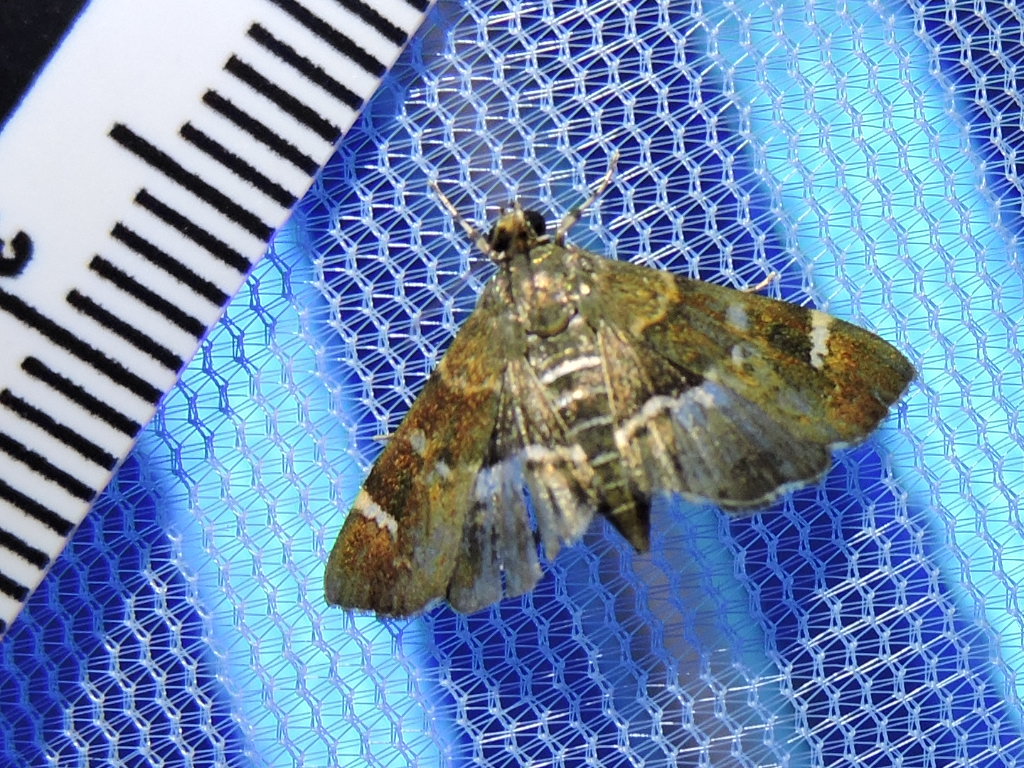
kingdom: Animalia
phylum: Arthropoda
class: Insecta
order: Lepidoptera
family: Crambidae
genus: Hymenia
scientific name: Hymenia perspectalis
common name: Spotted beet webworm
